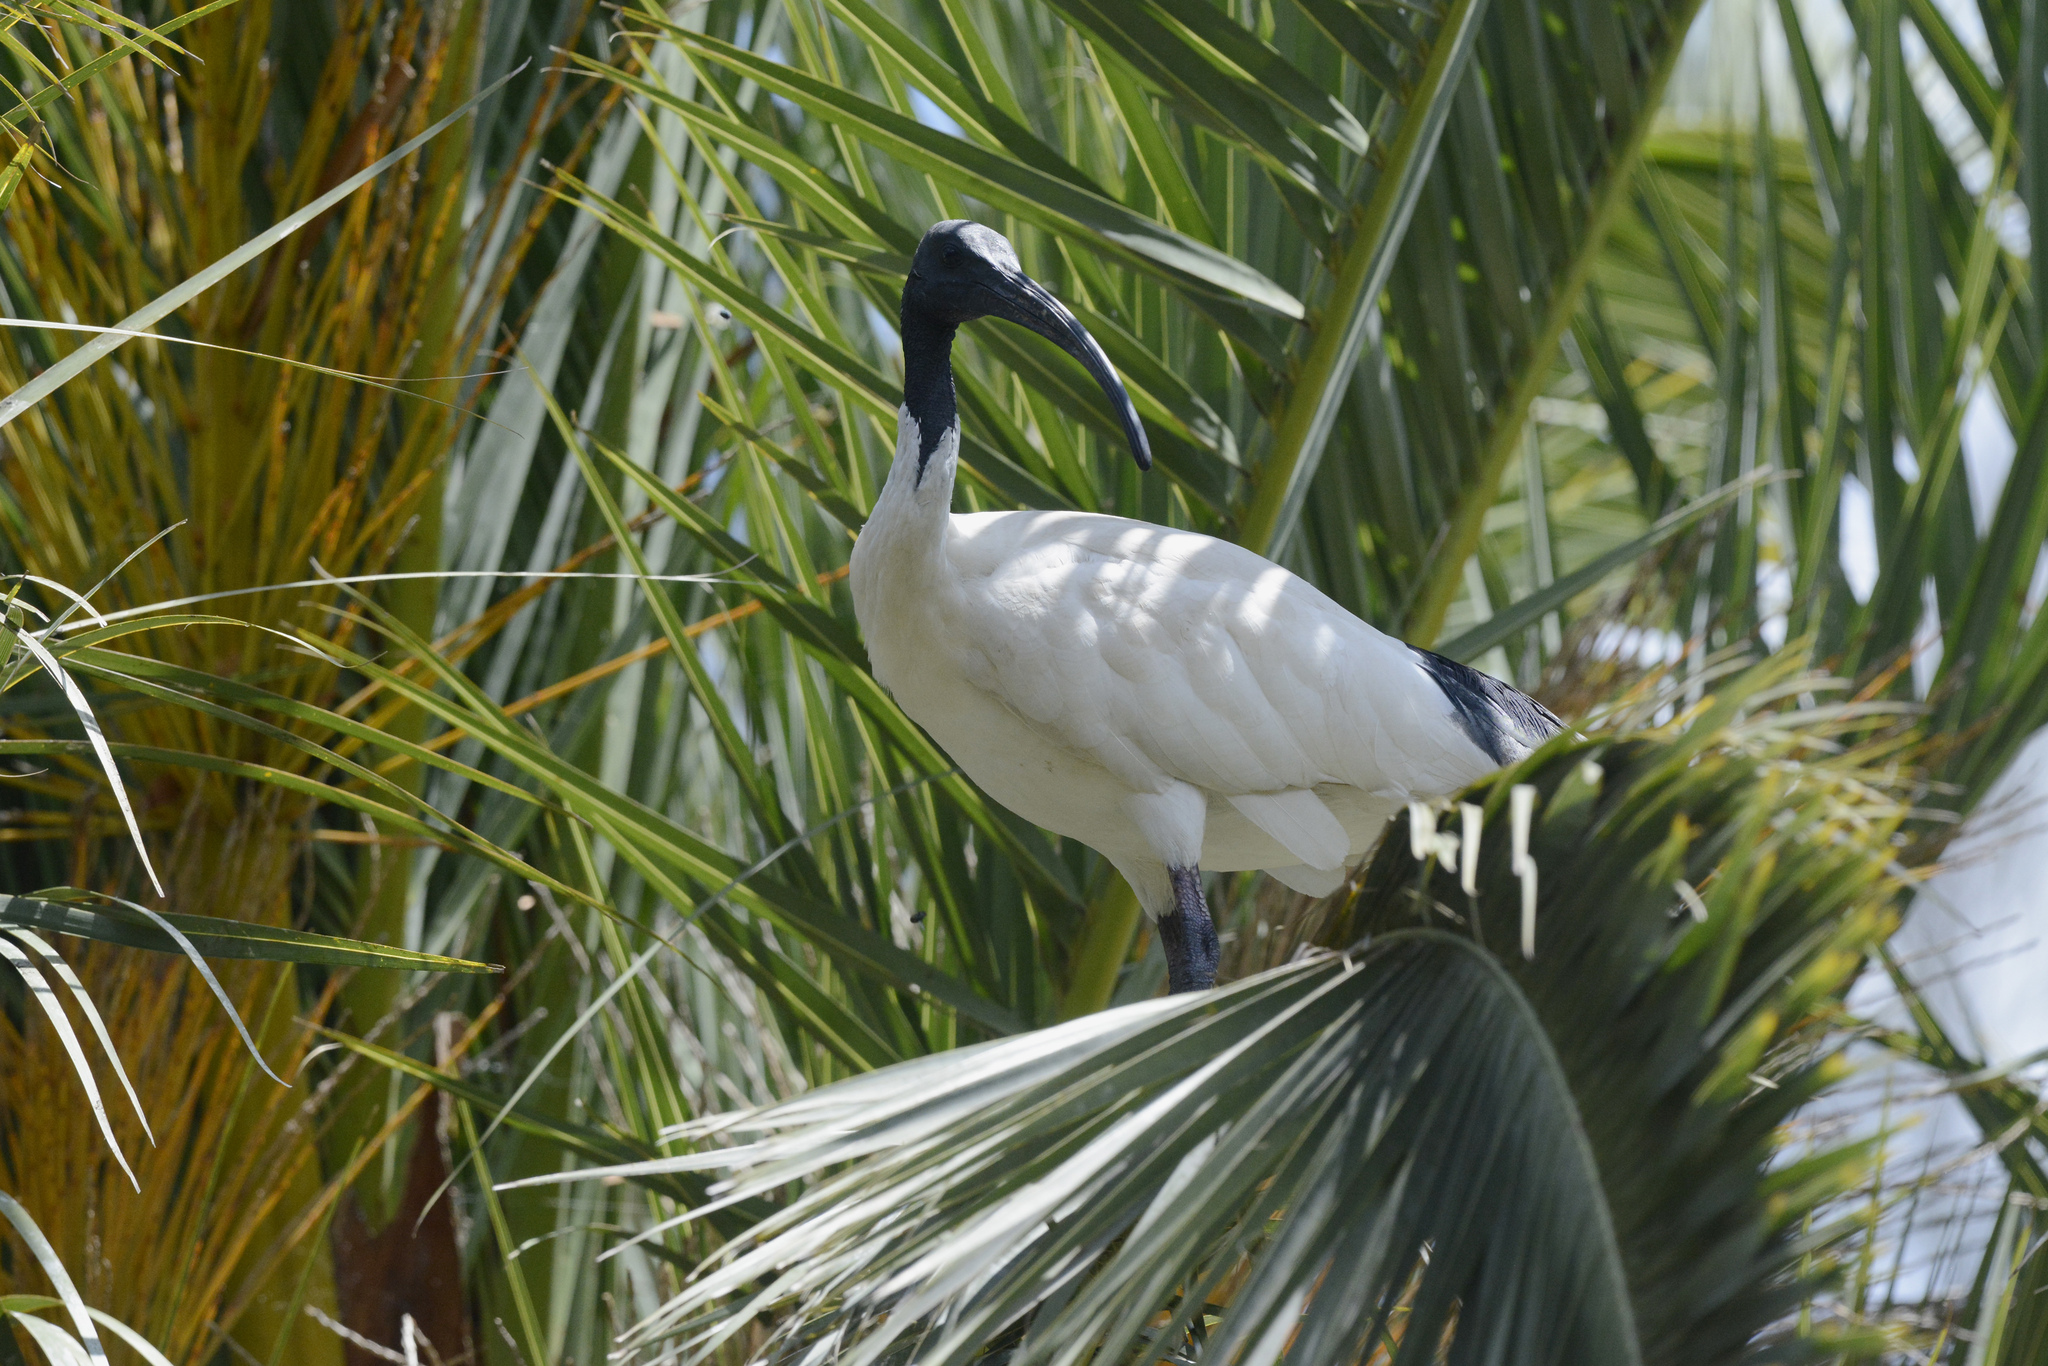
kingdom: Animalia
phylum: Chordata
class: Aves
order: Pelecaniformes
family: Threskiornithidae
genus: Threskiornis
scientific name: Threskiornis molucca
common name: Australian white ibis
